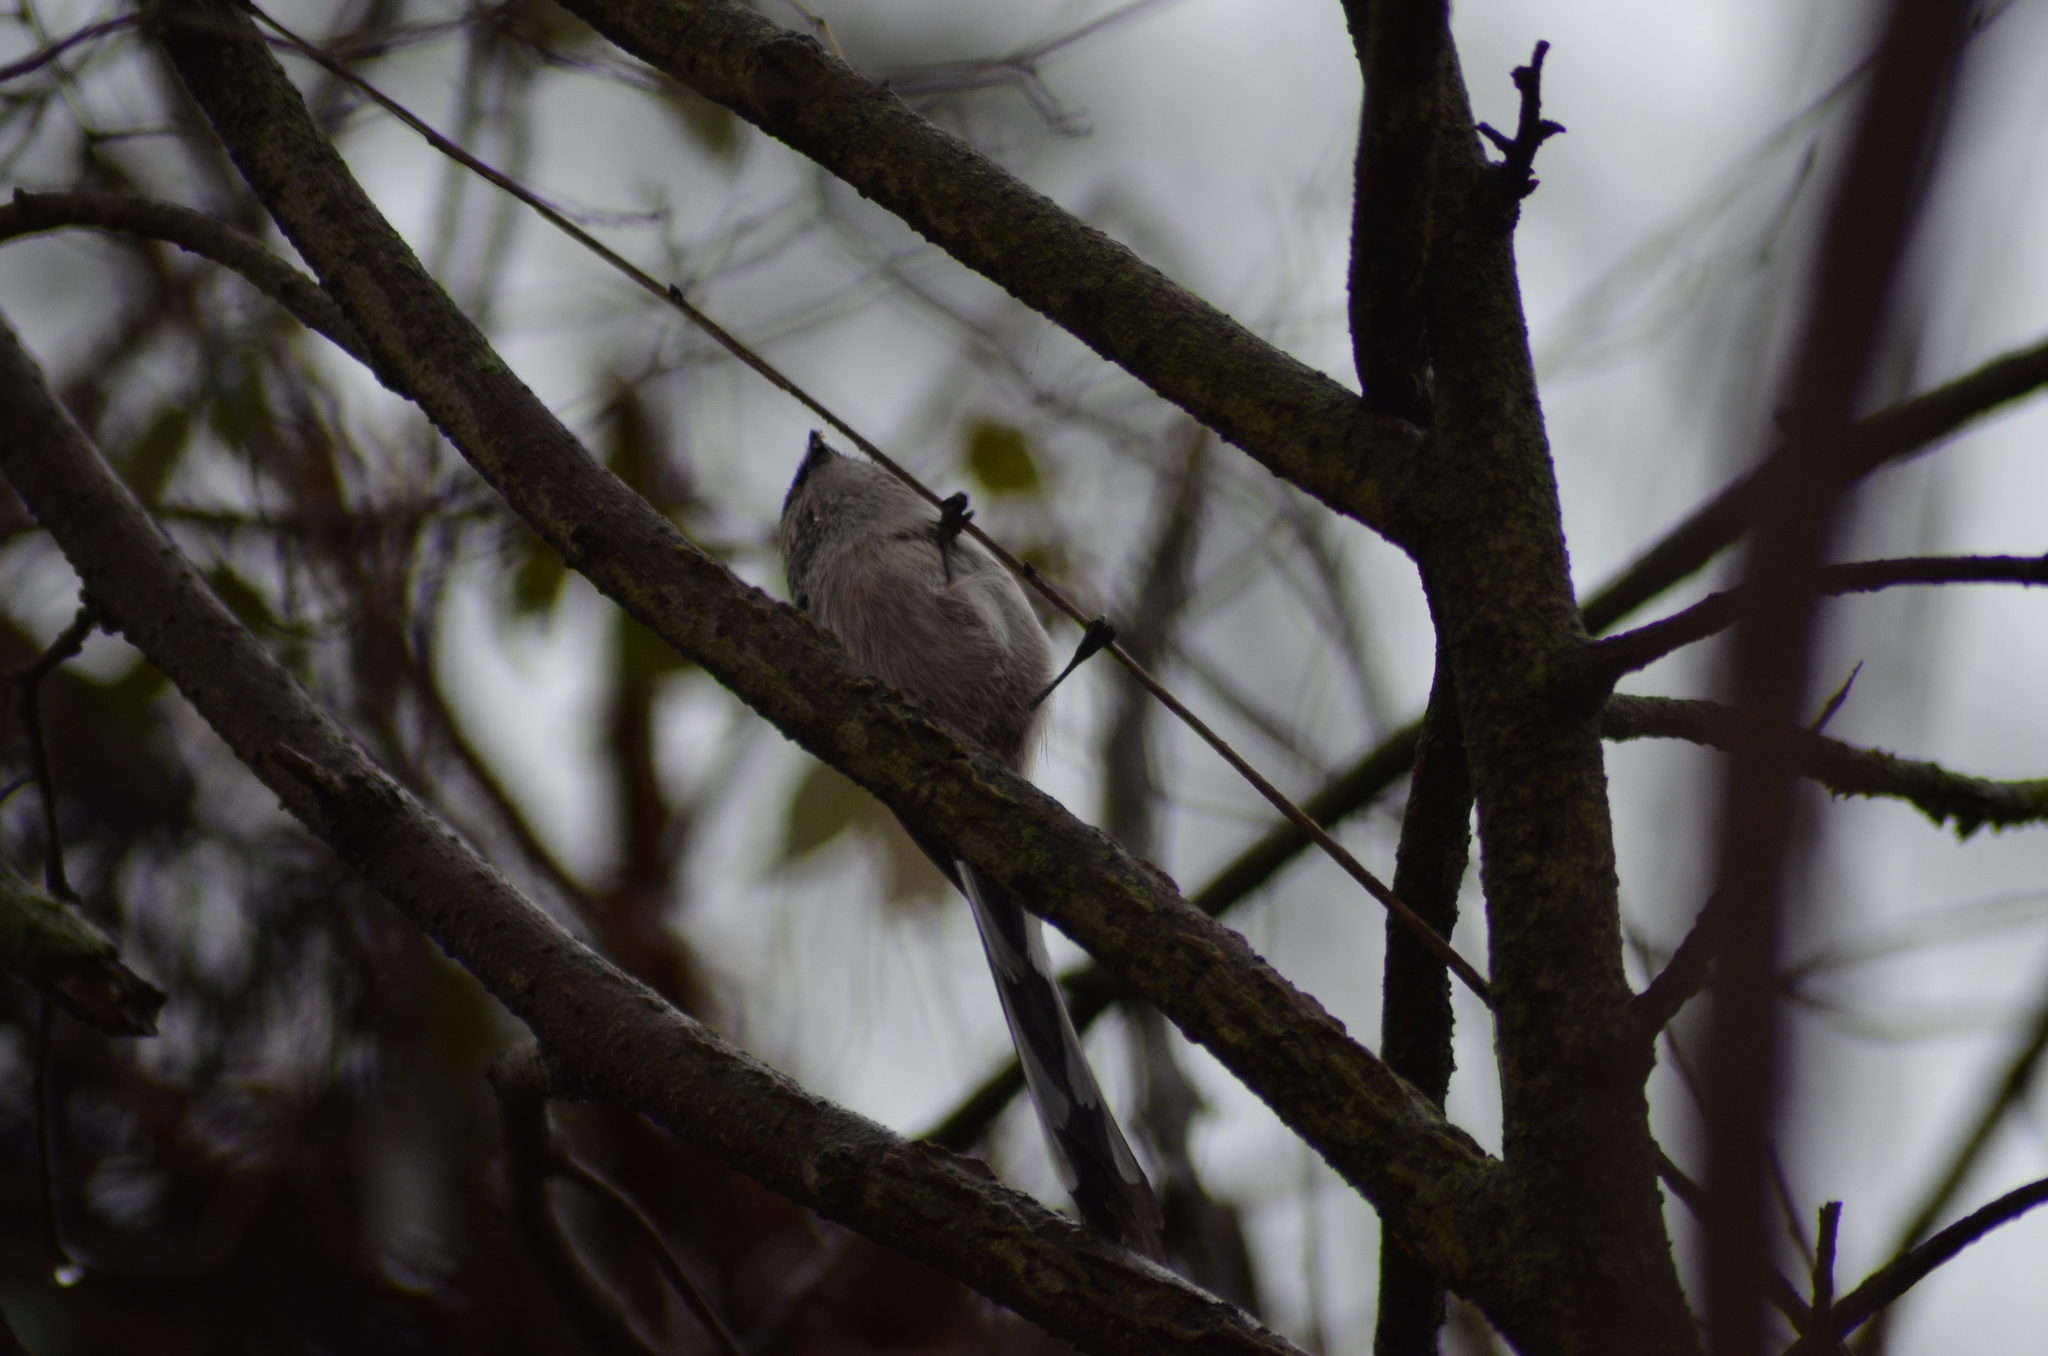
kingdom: Animalia
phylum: Chordata
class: Aves
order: Passeriformes
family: Aegithalidae
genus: Aegithalos
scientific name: Aegithalos caudatus
